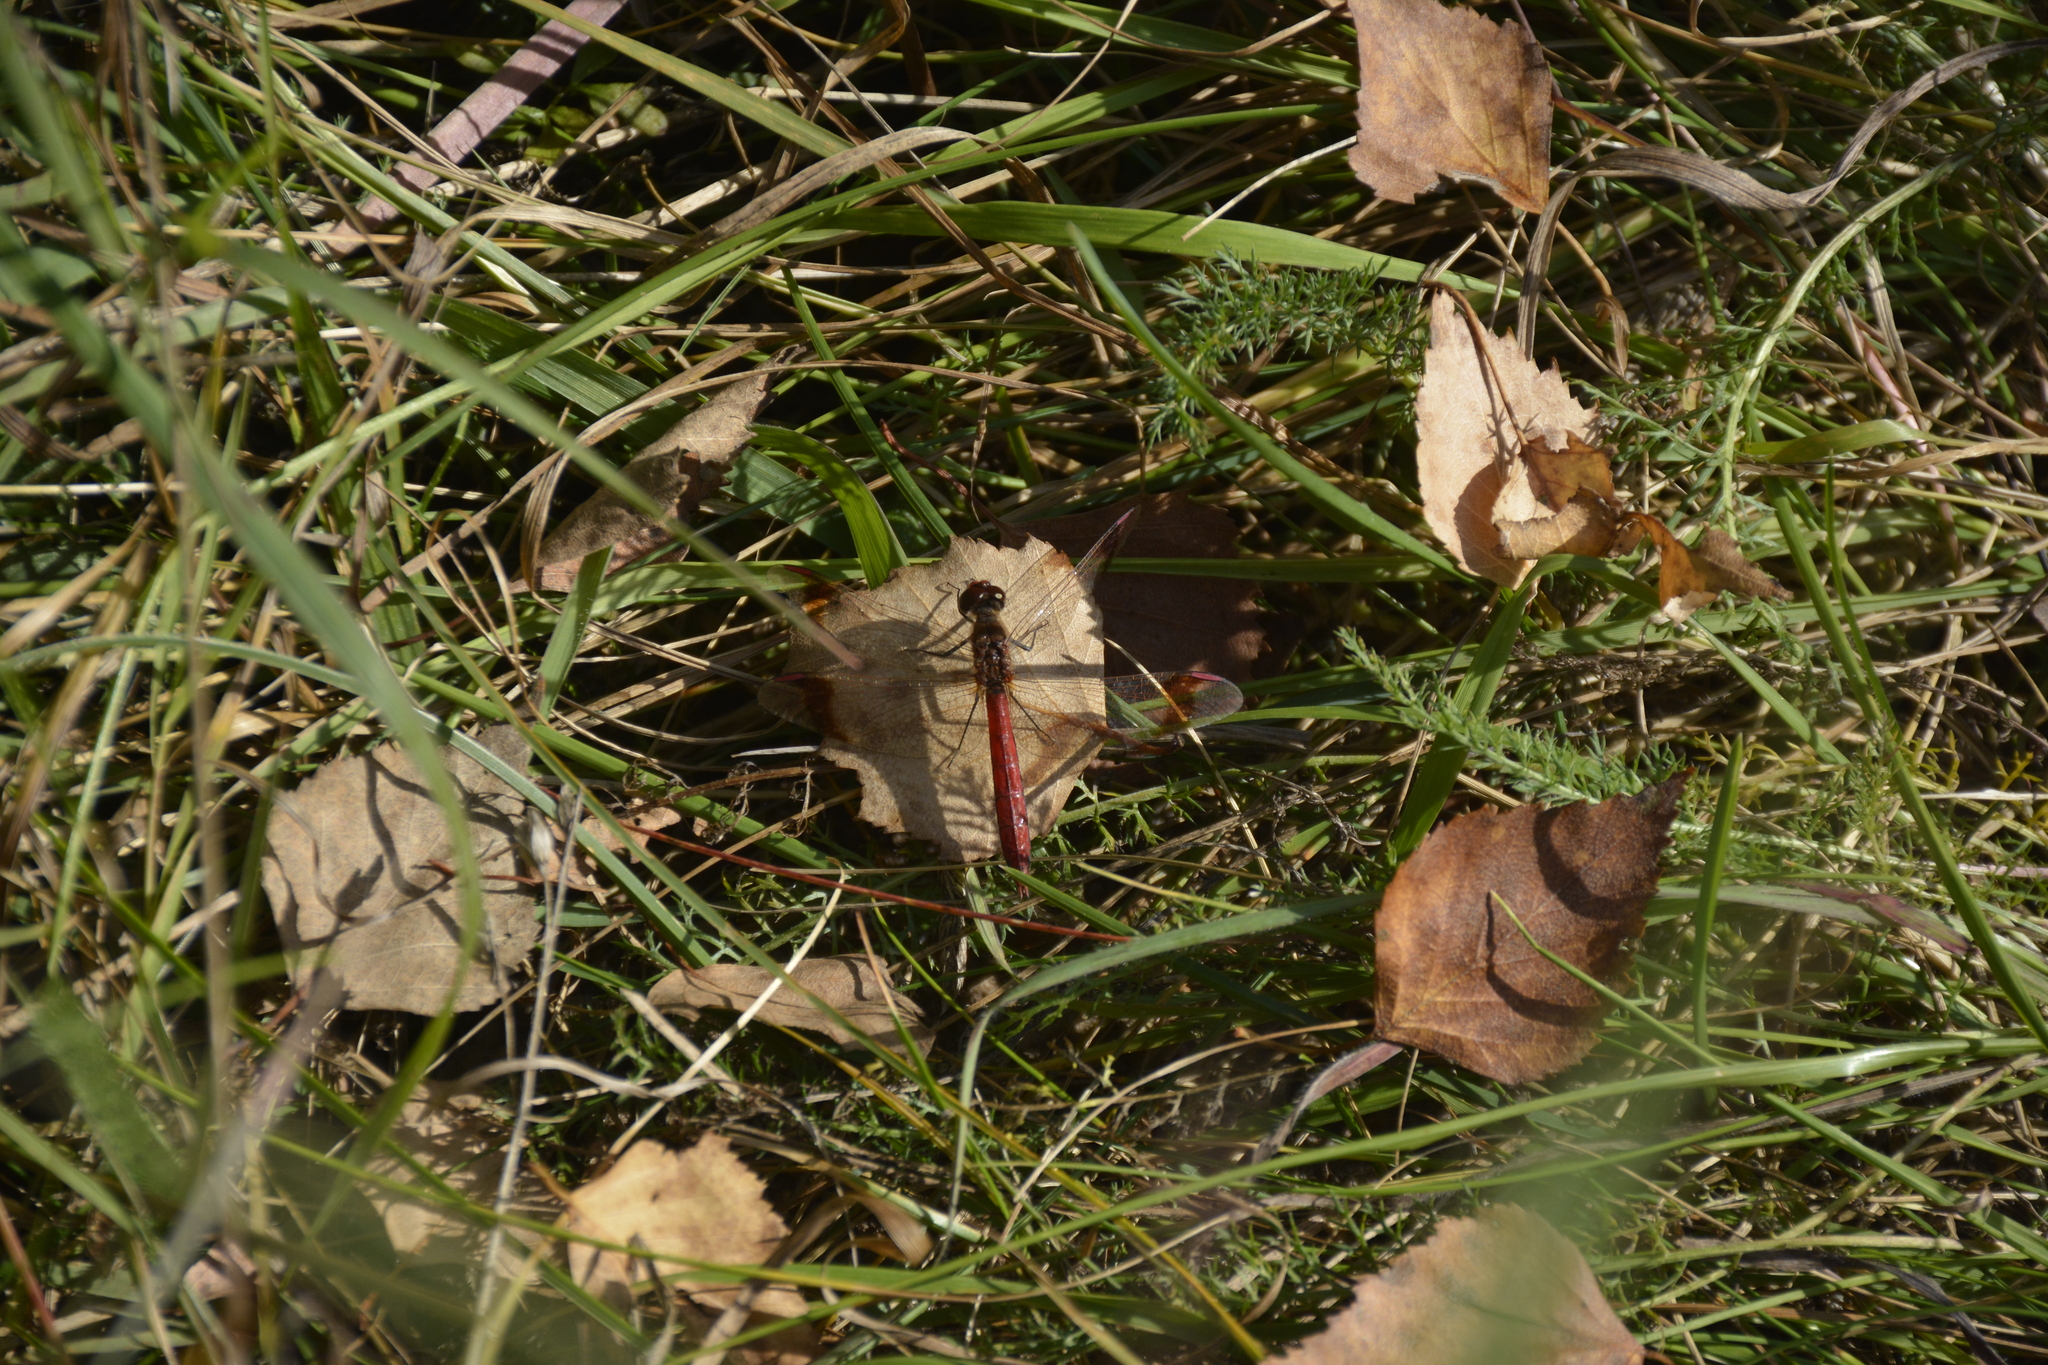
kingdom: Animalia
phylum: Arthropoda
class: Insecta
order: Odonata
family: Libellulidae
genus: Sympetrum
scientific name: Sympetrum pedemontanum
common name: Banded darter
